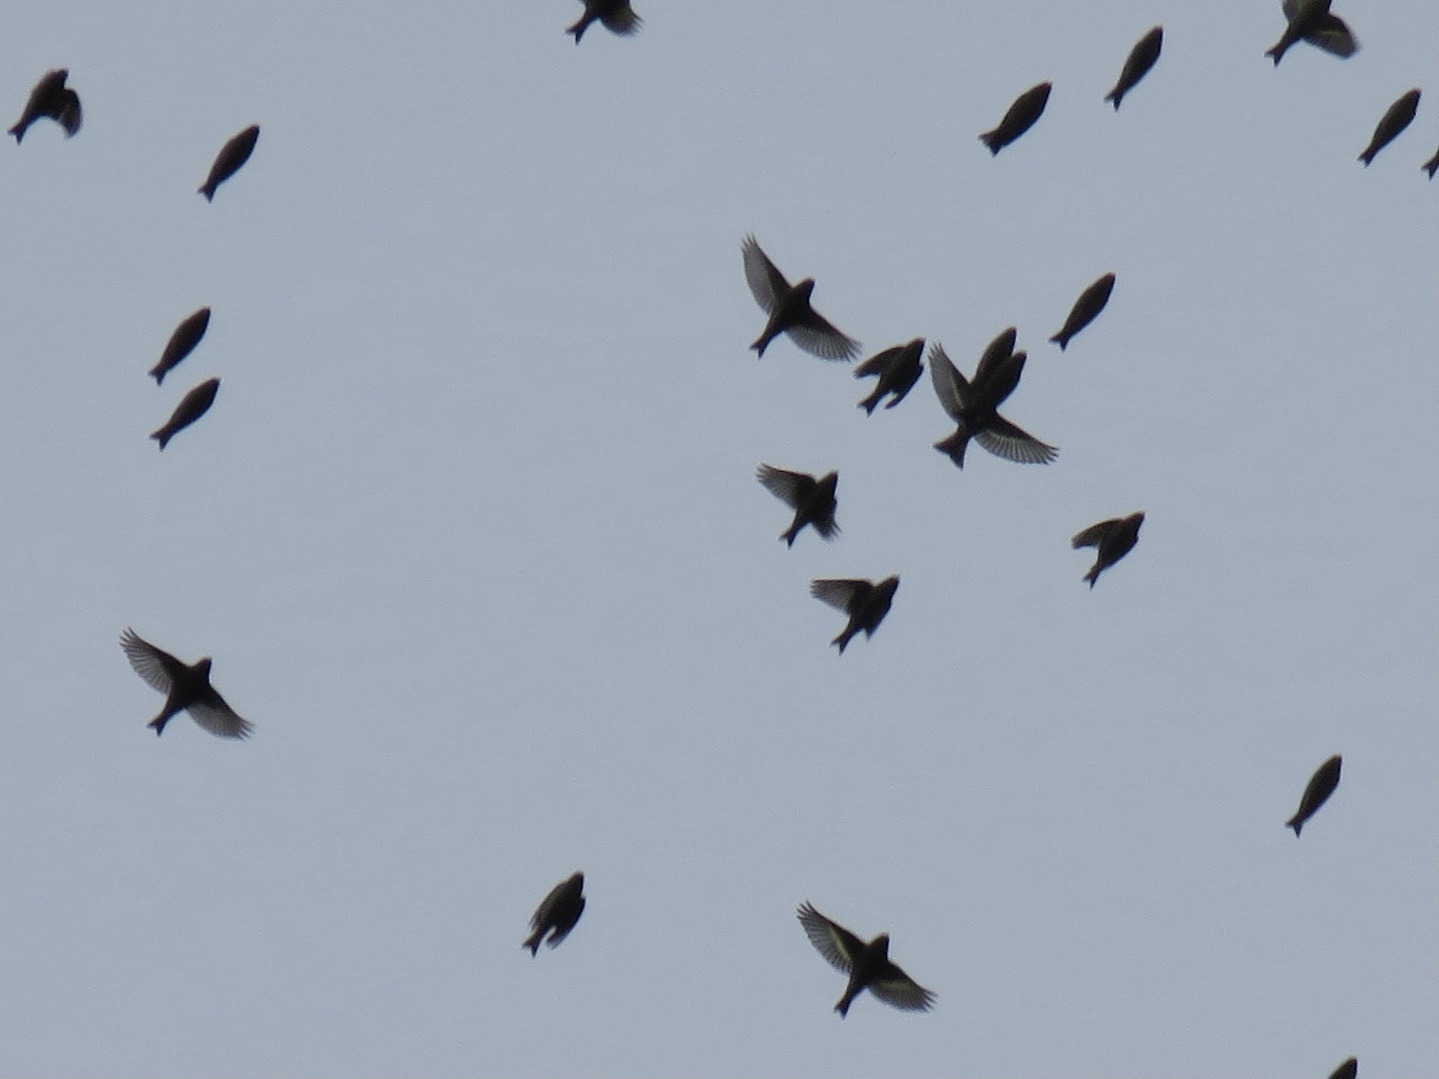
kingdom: Animalia
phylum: Chordata
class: Aves
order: Passeriformes
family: Fringillidae
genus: Spinus
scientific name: Spinus pinus
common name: Pine siskin
